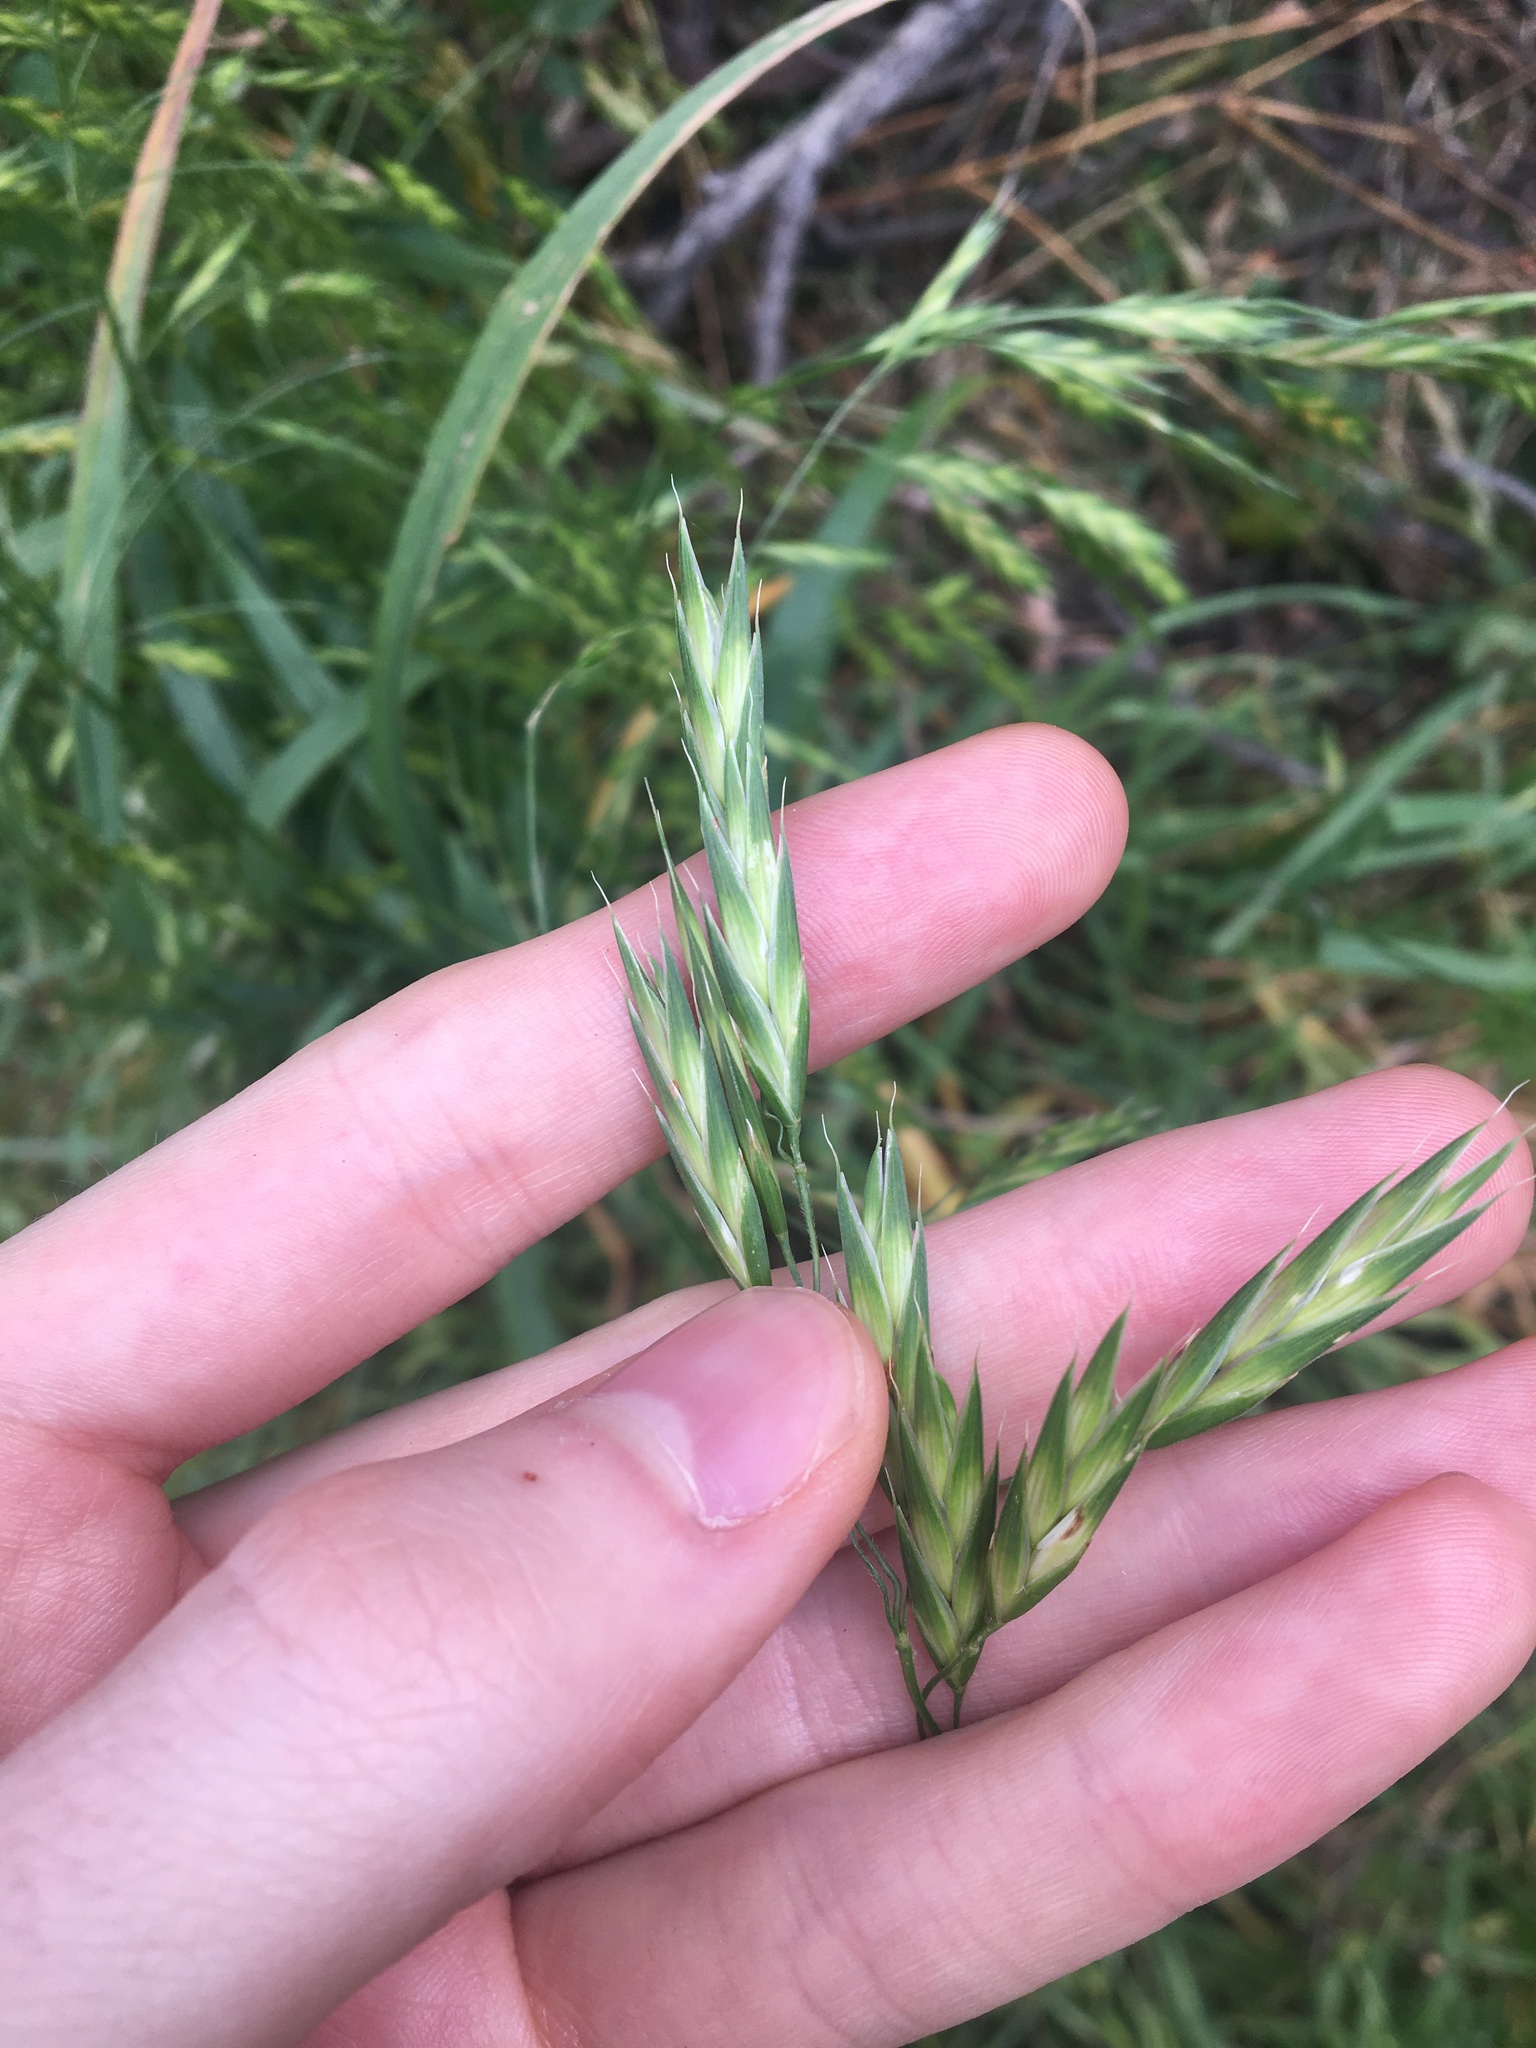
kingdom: Plantae
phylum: Tracheophyta
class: Liliopsida
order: Poales
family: Poaceae
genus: Bromus
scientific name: Bromus catharticus
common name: Rescuegrass
